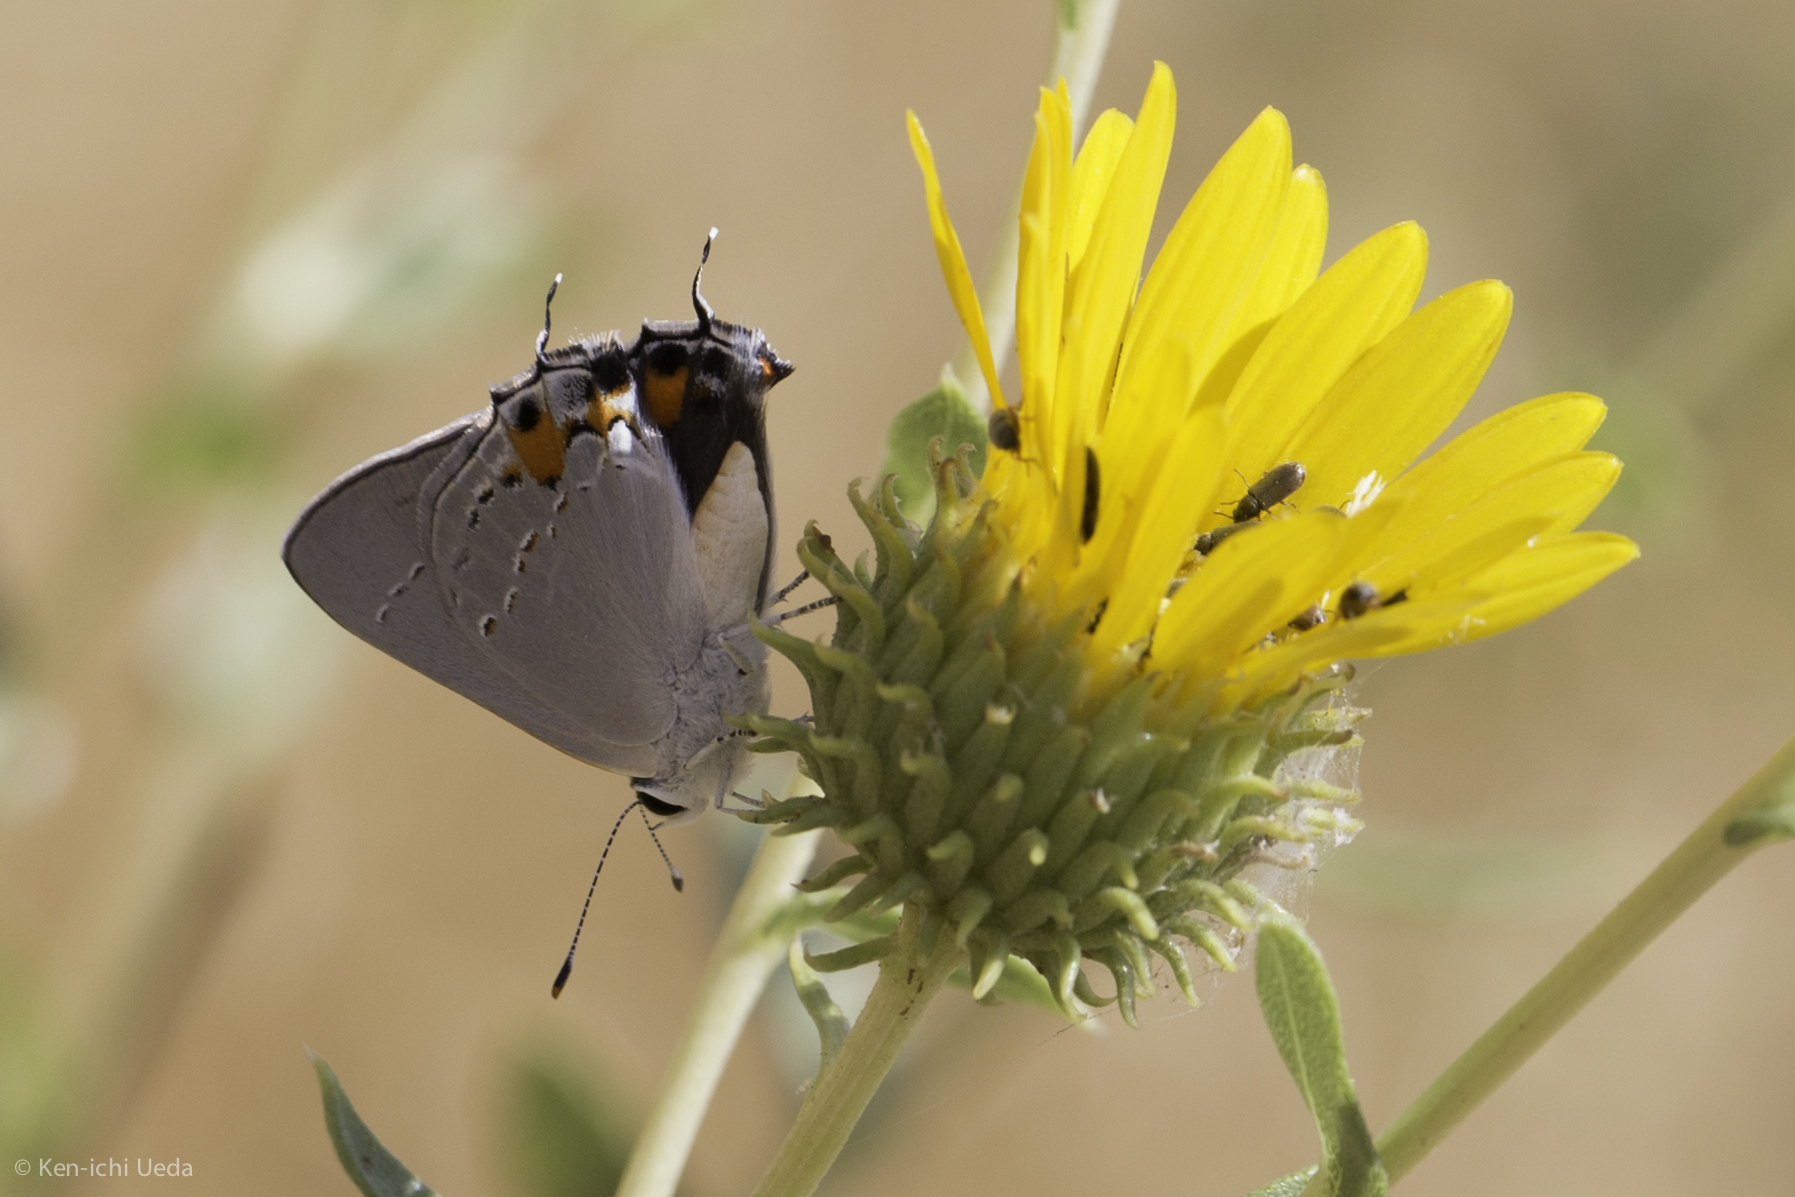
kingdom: Animalia
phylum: Arthropoda
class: Insecta
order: Lepidoptera
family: Lycaenidae
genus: Strymon
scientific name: Strymon melinus
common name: Gray hairstreak
